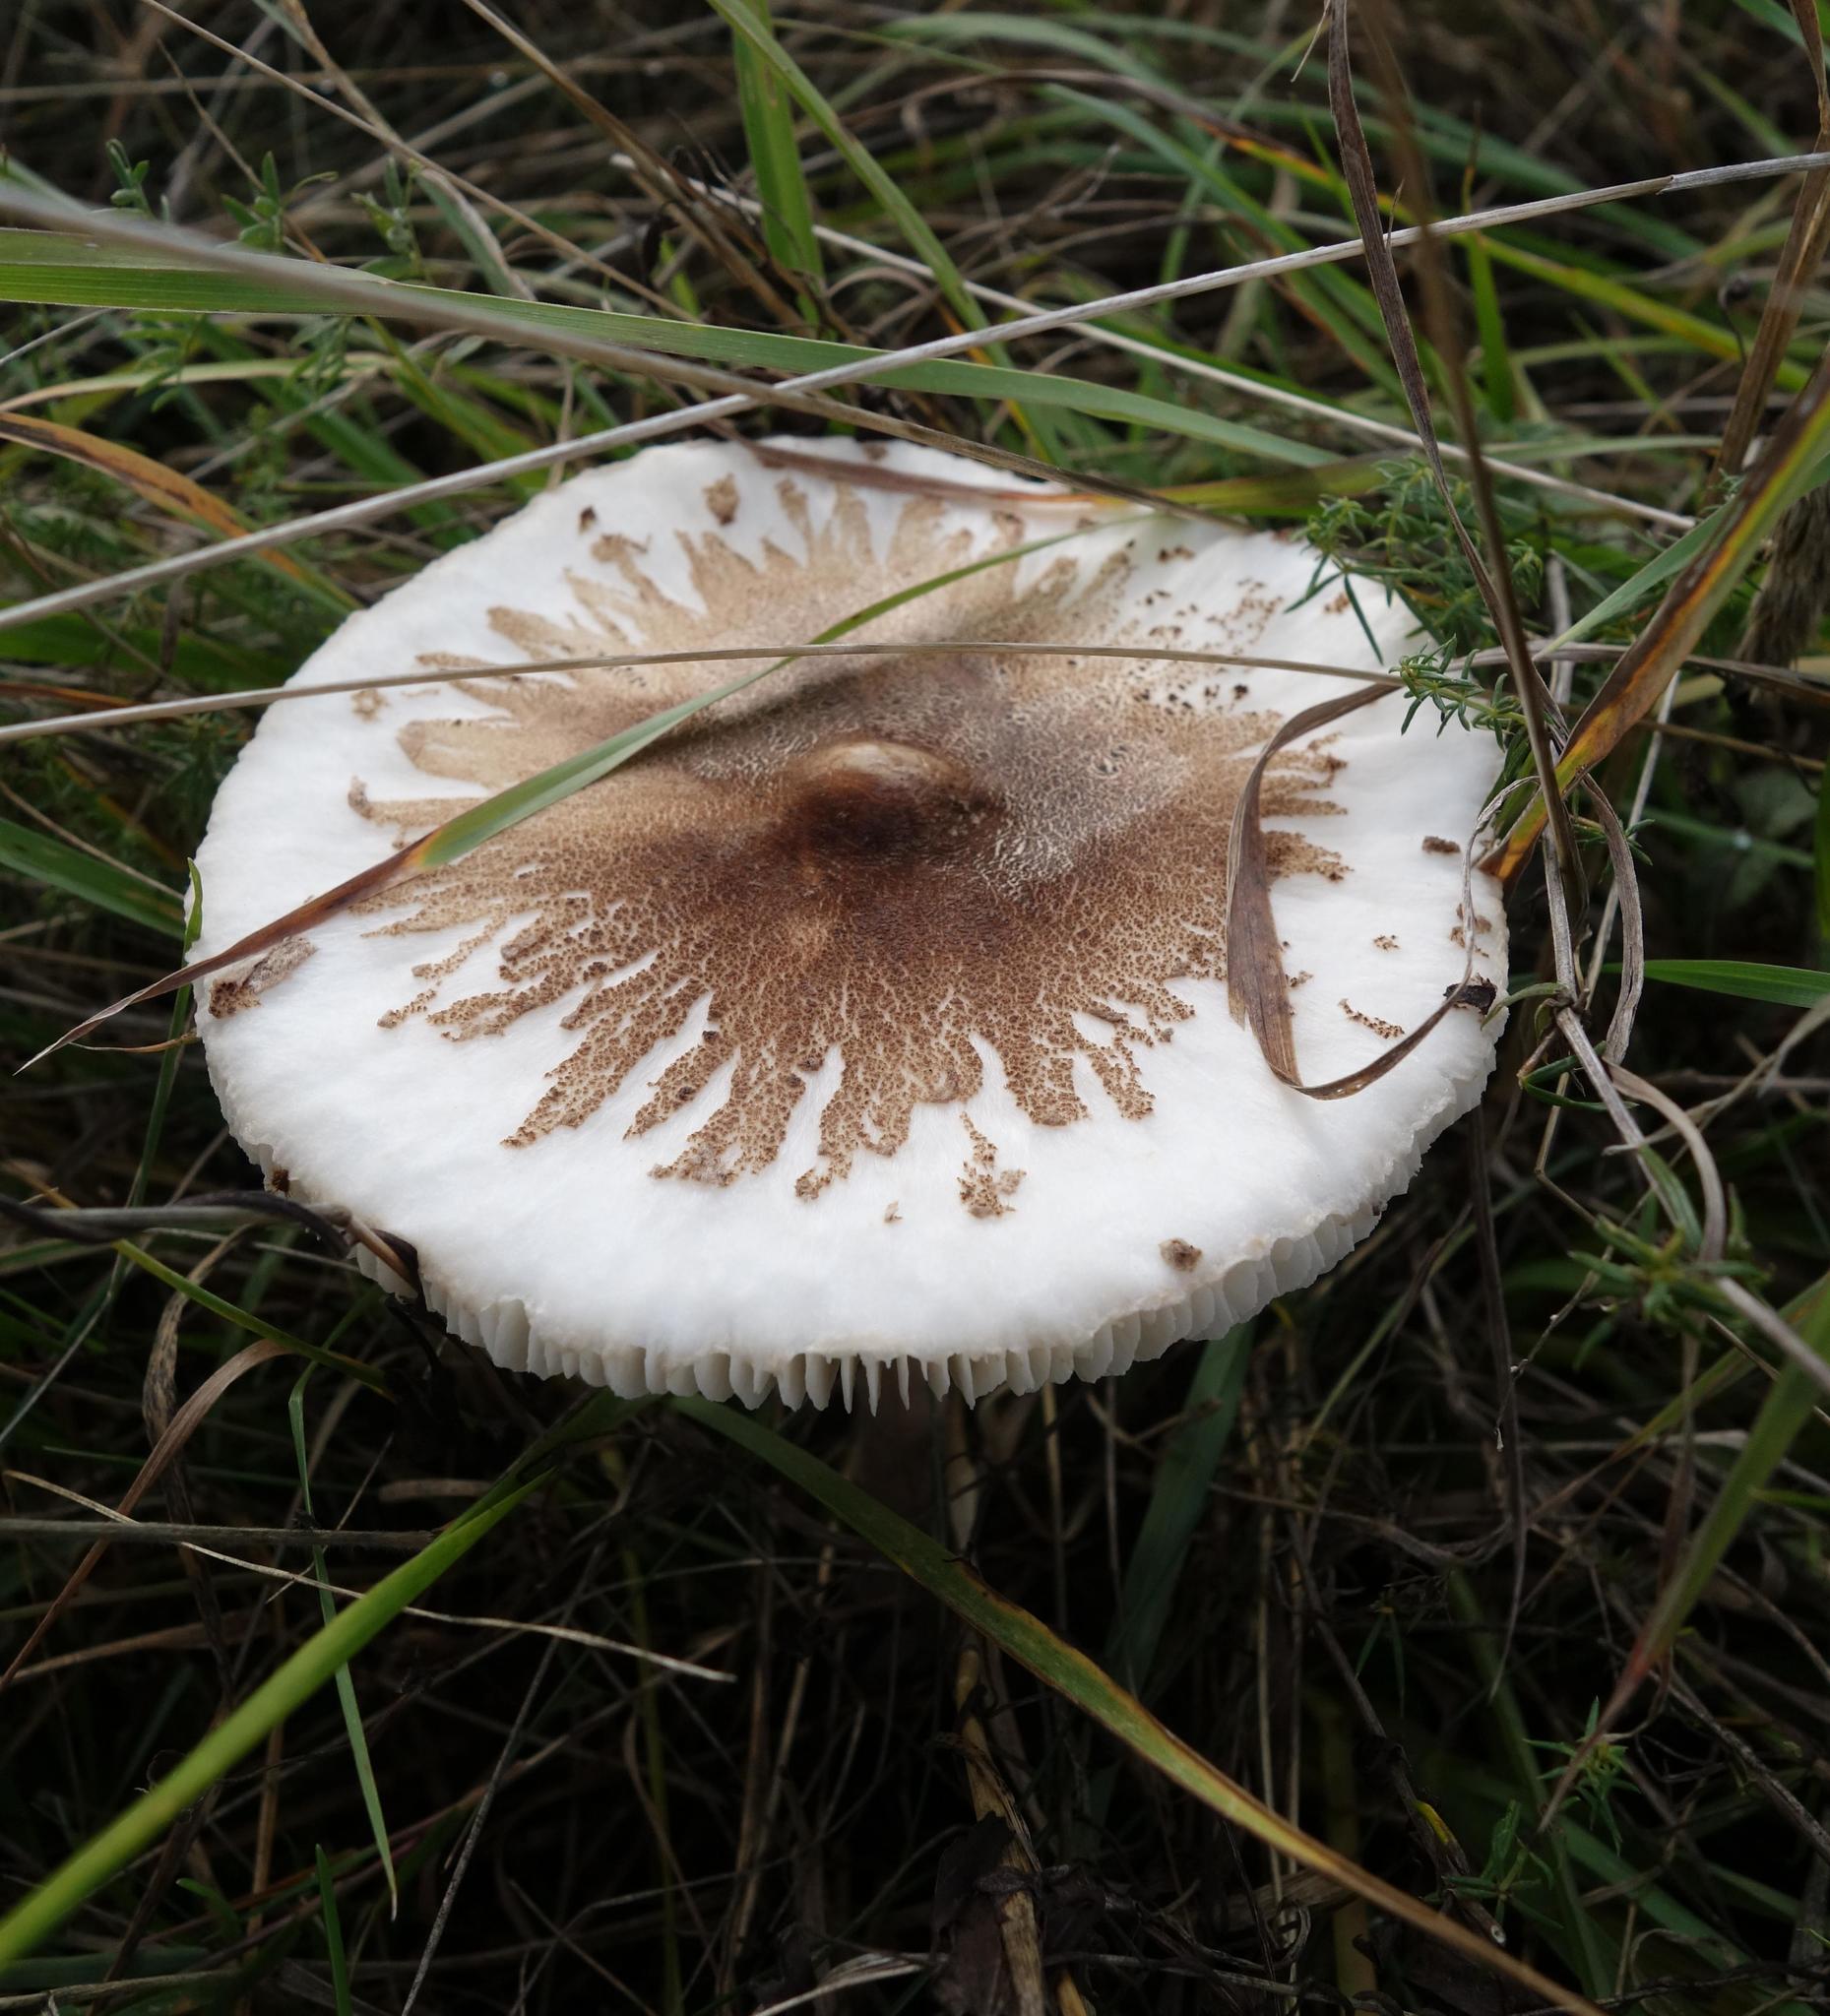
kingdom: Fungi
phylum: Basidiomycota
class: Agaricomycetes
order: Agaricales
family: Agaricaceae
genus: Macrolepiota
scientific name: Macrolepiota mastoidea
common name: Slender parasol
